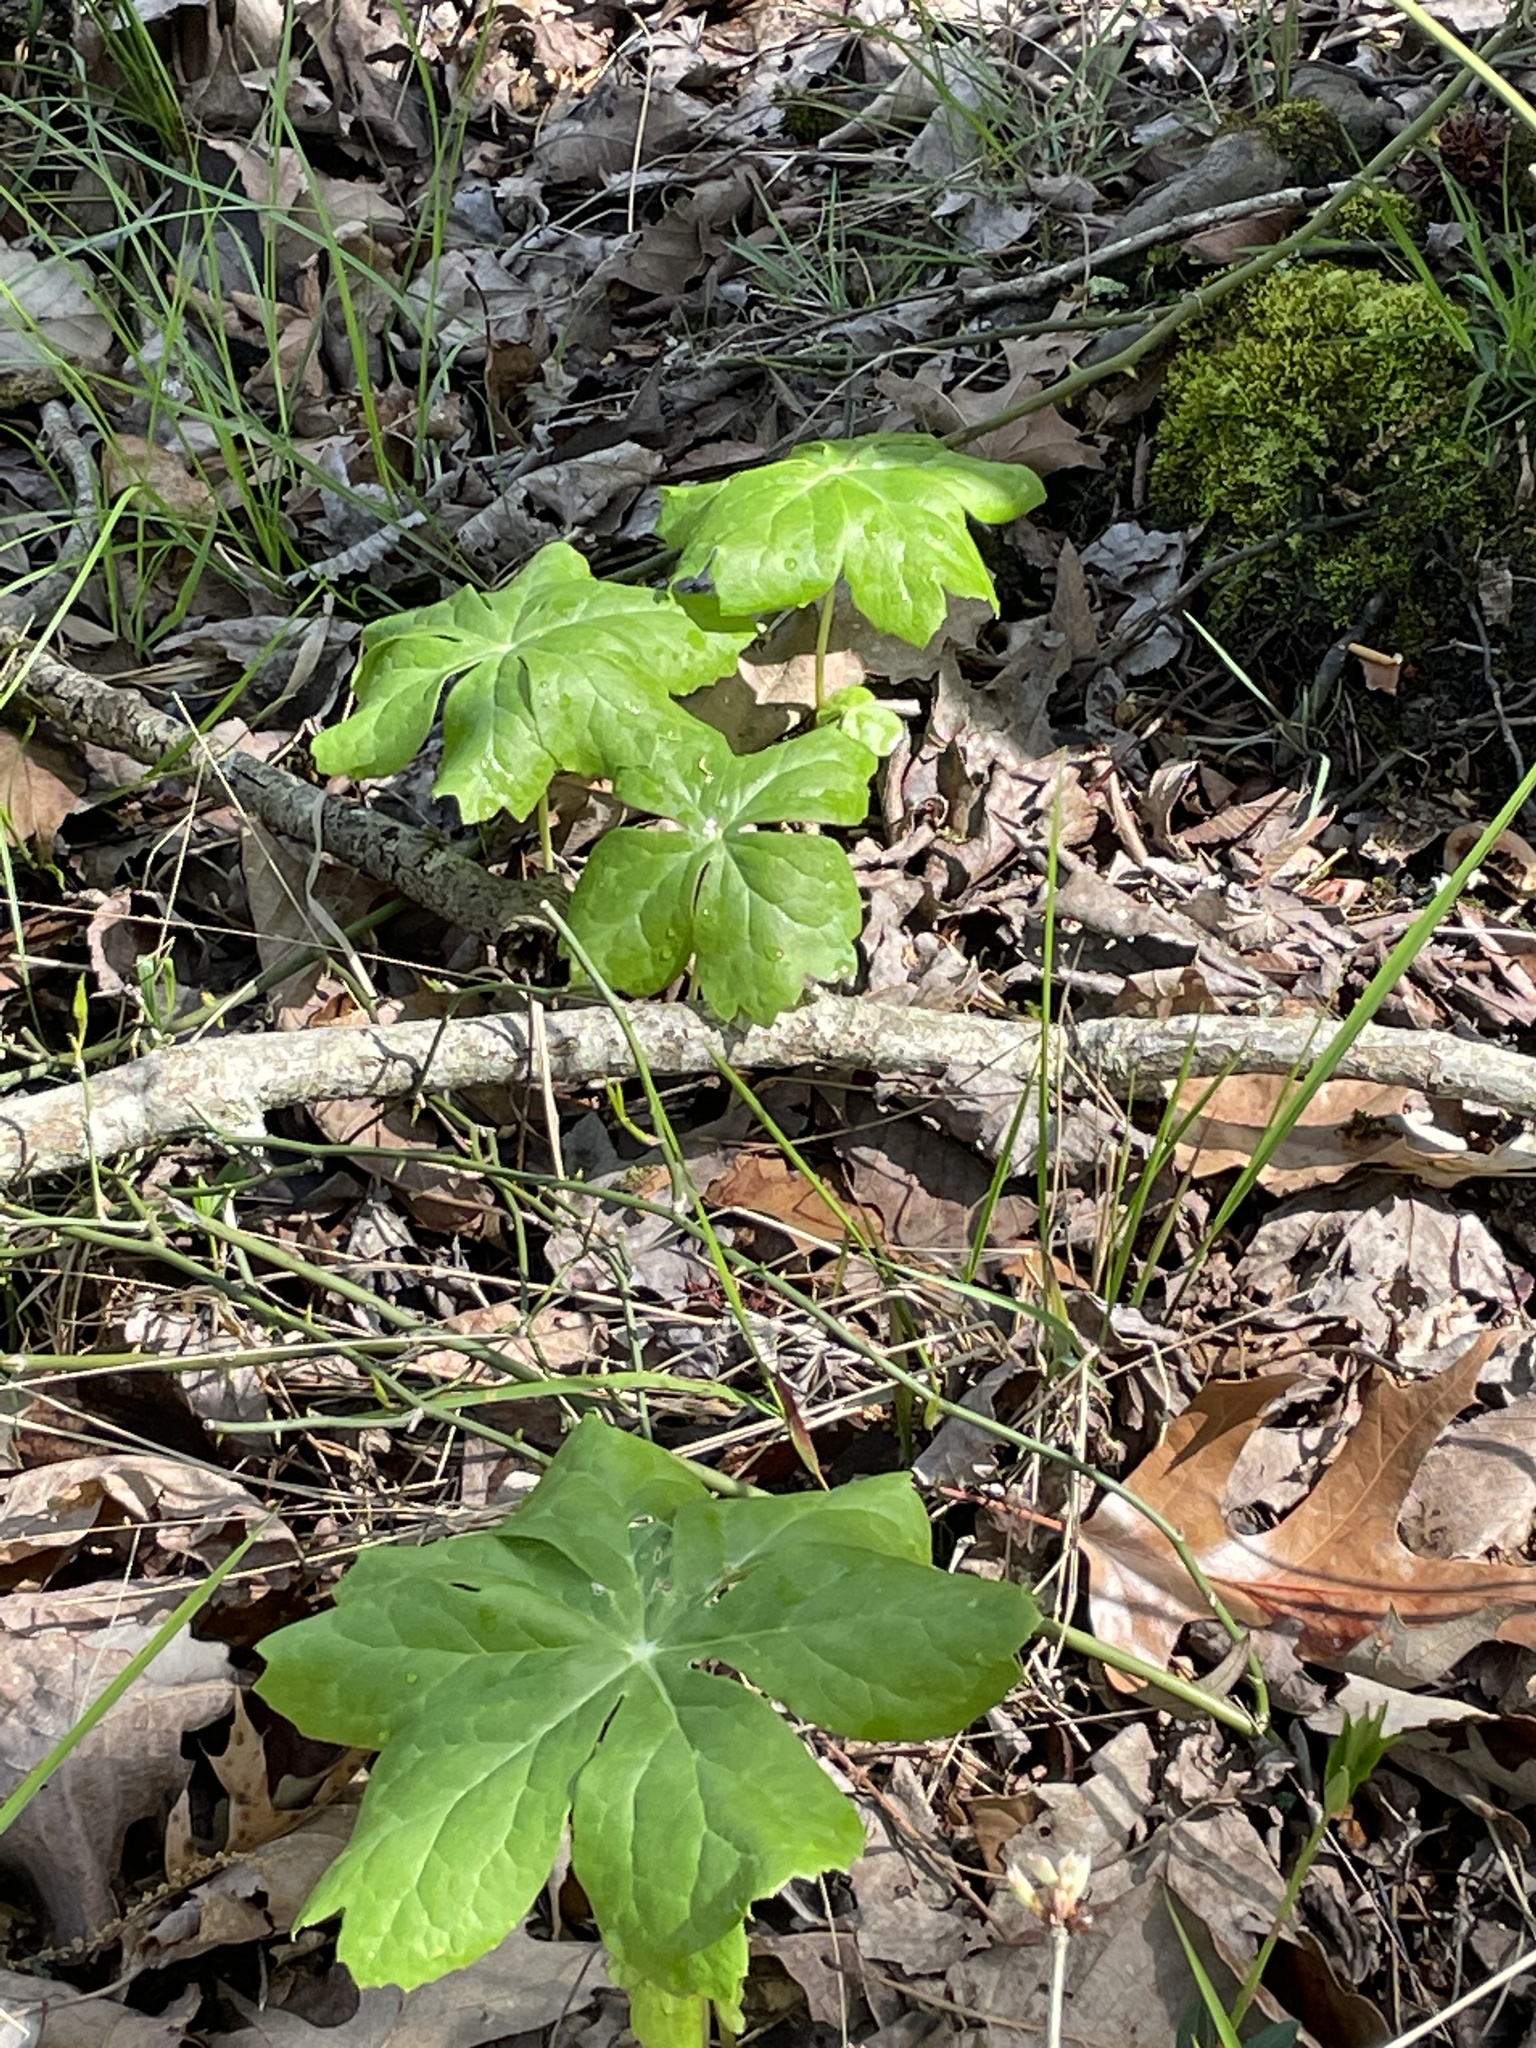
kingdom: Plantae
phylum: Tracheophyta
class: Magnoliopsida
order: Ranunculales
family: Berberidaceae
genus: Podophyllum
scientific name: Podophyllum peltatum
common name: Wild mandrake
